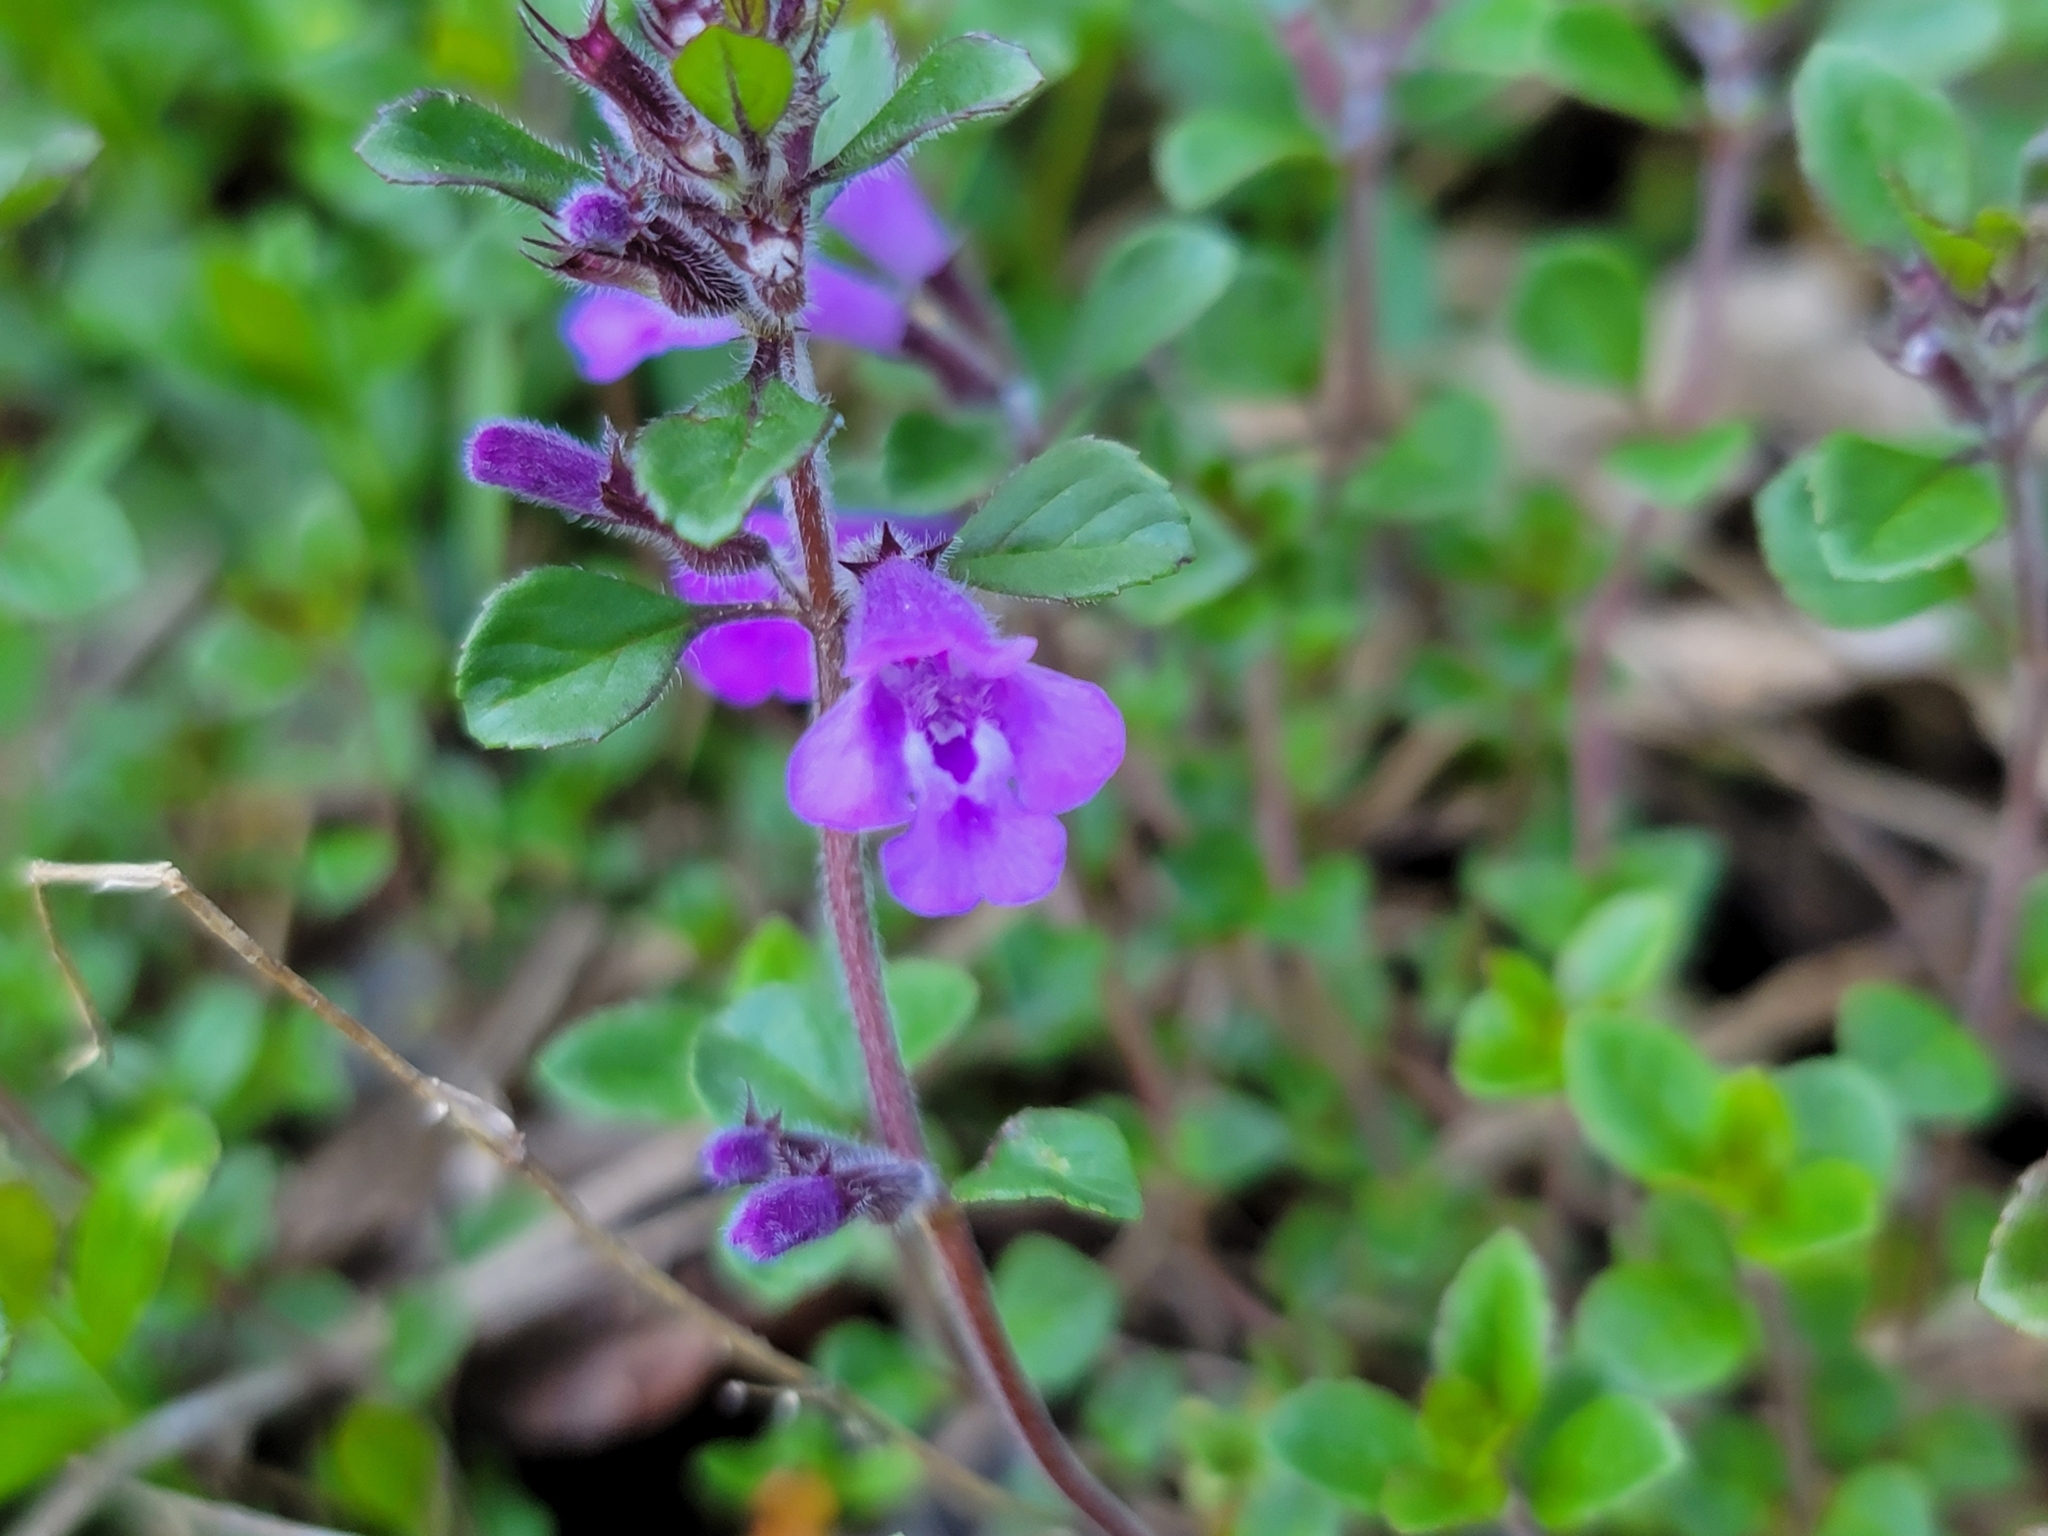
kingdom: Plantae
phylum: Tracheophyta
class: Magnoliopsida
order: Lamiales
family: Lamiaceae
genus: Clinopodium
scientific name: Clinopodium alpinum
